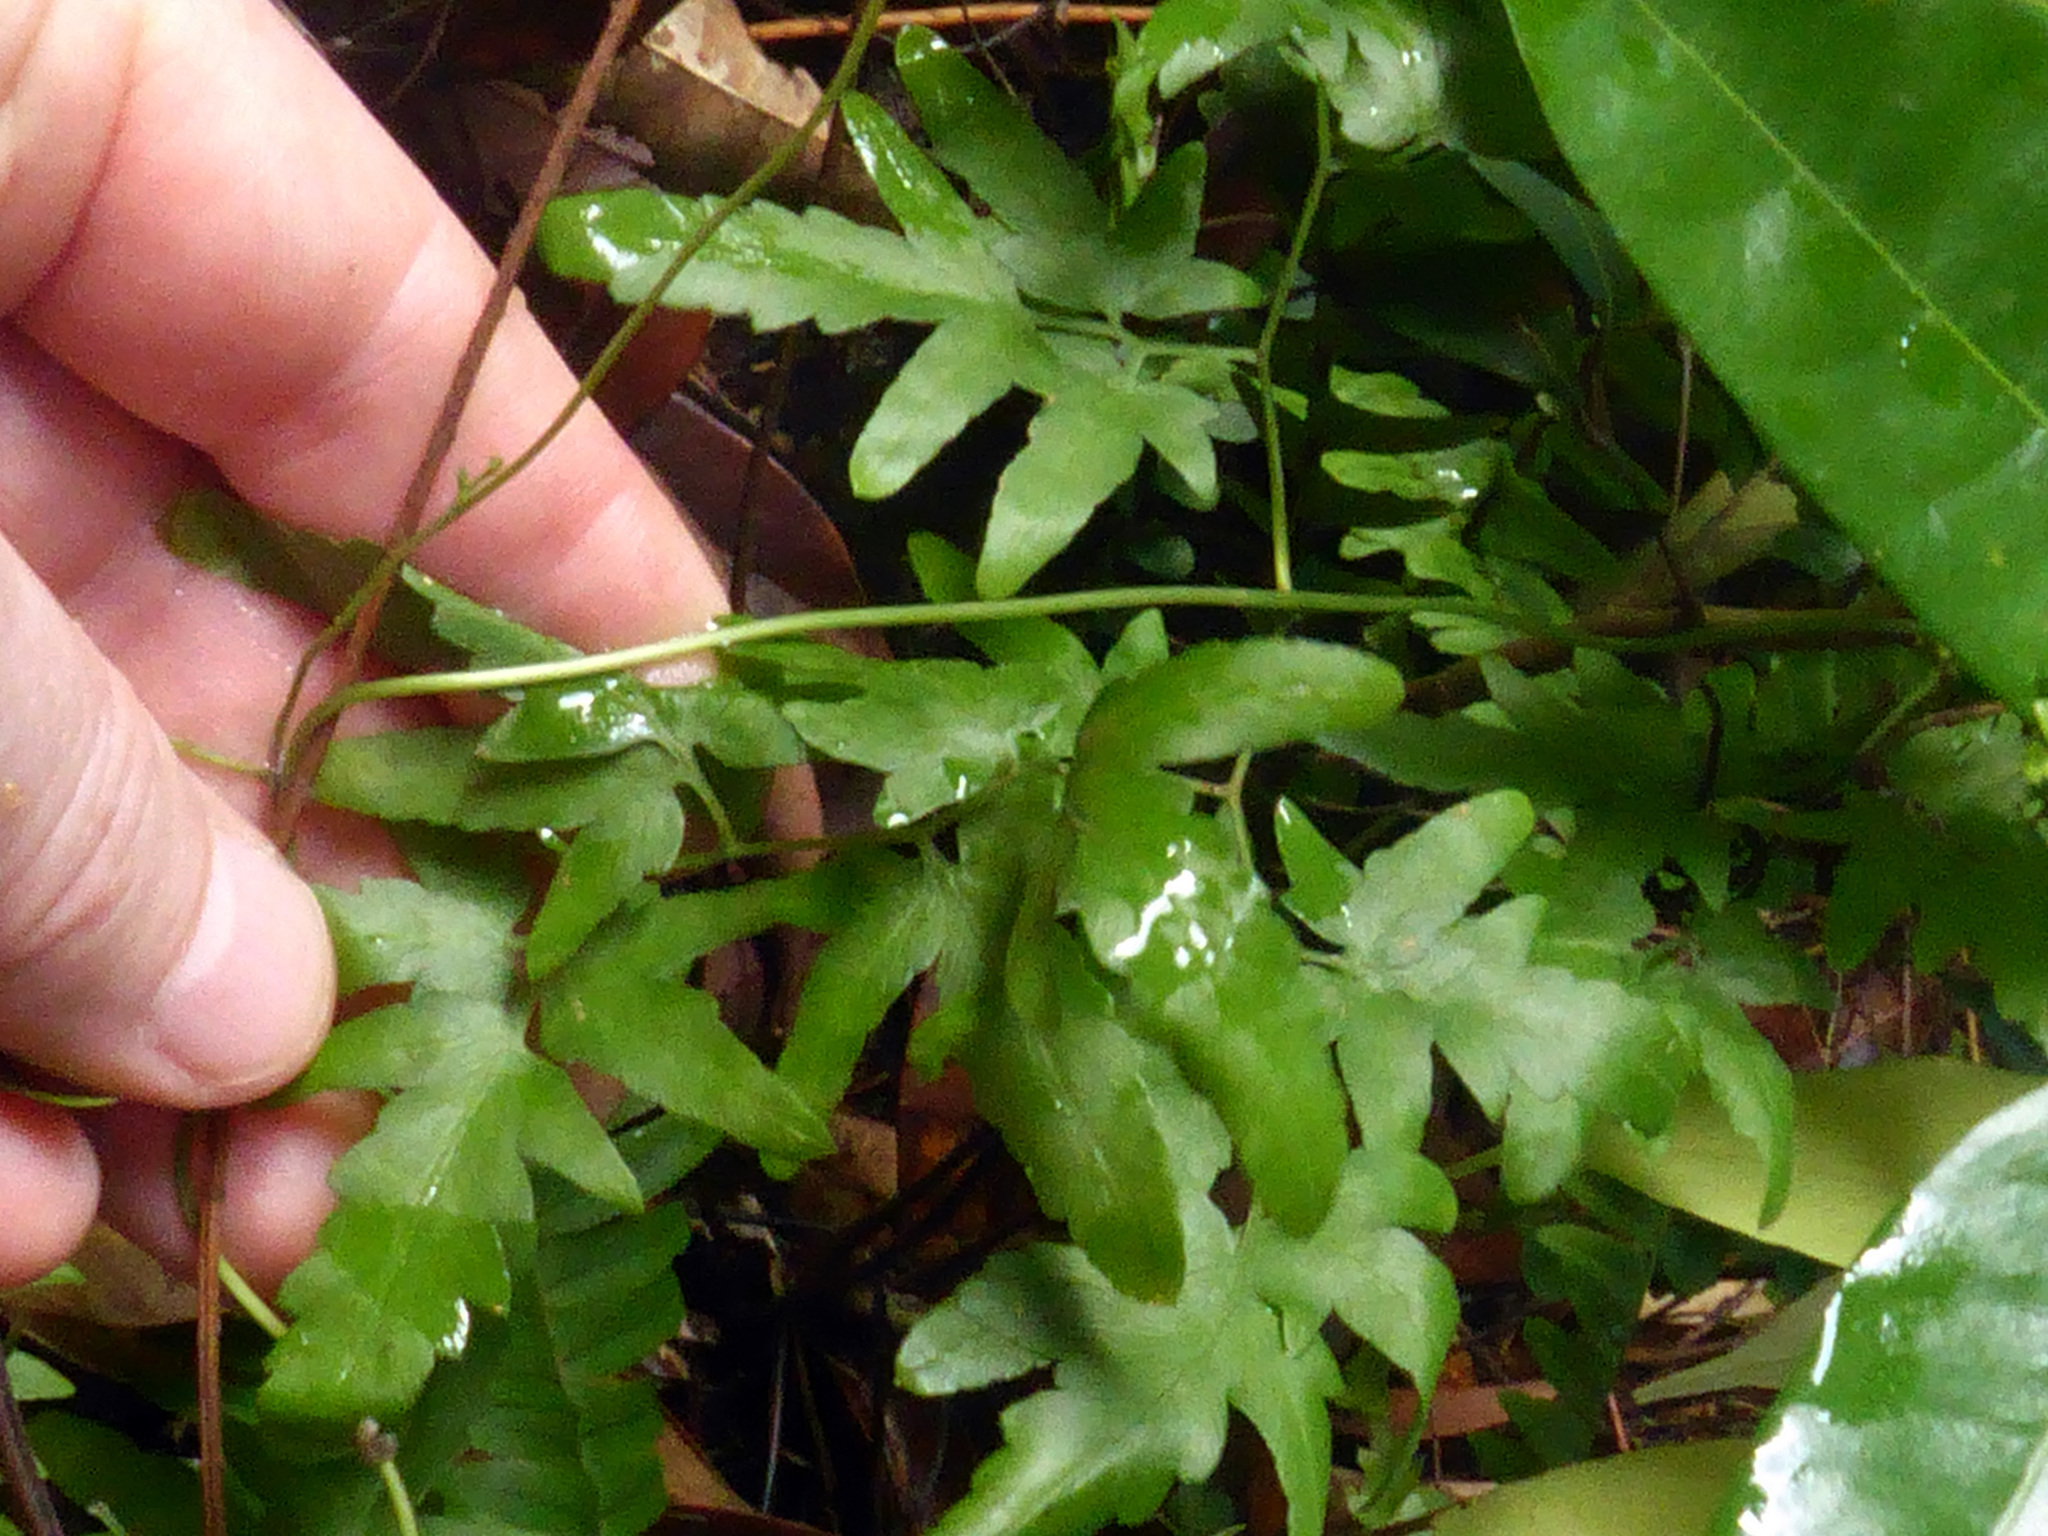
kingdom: Plantae
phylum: Tracheophyta
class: Polypodiopsida
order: Schizaeales
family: Lygodiaceae
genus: Lygodium
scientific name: Lygodium japonicum
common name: Japanese climbing fern
